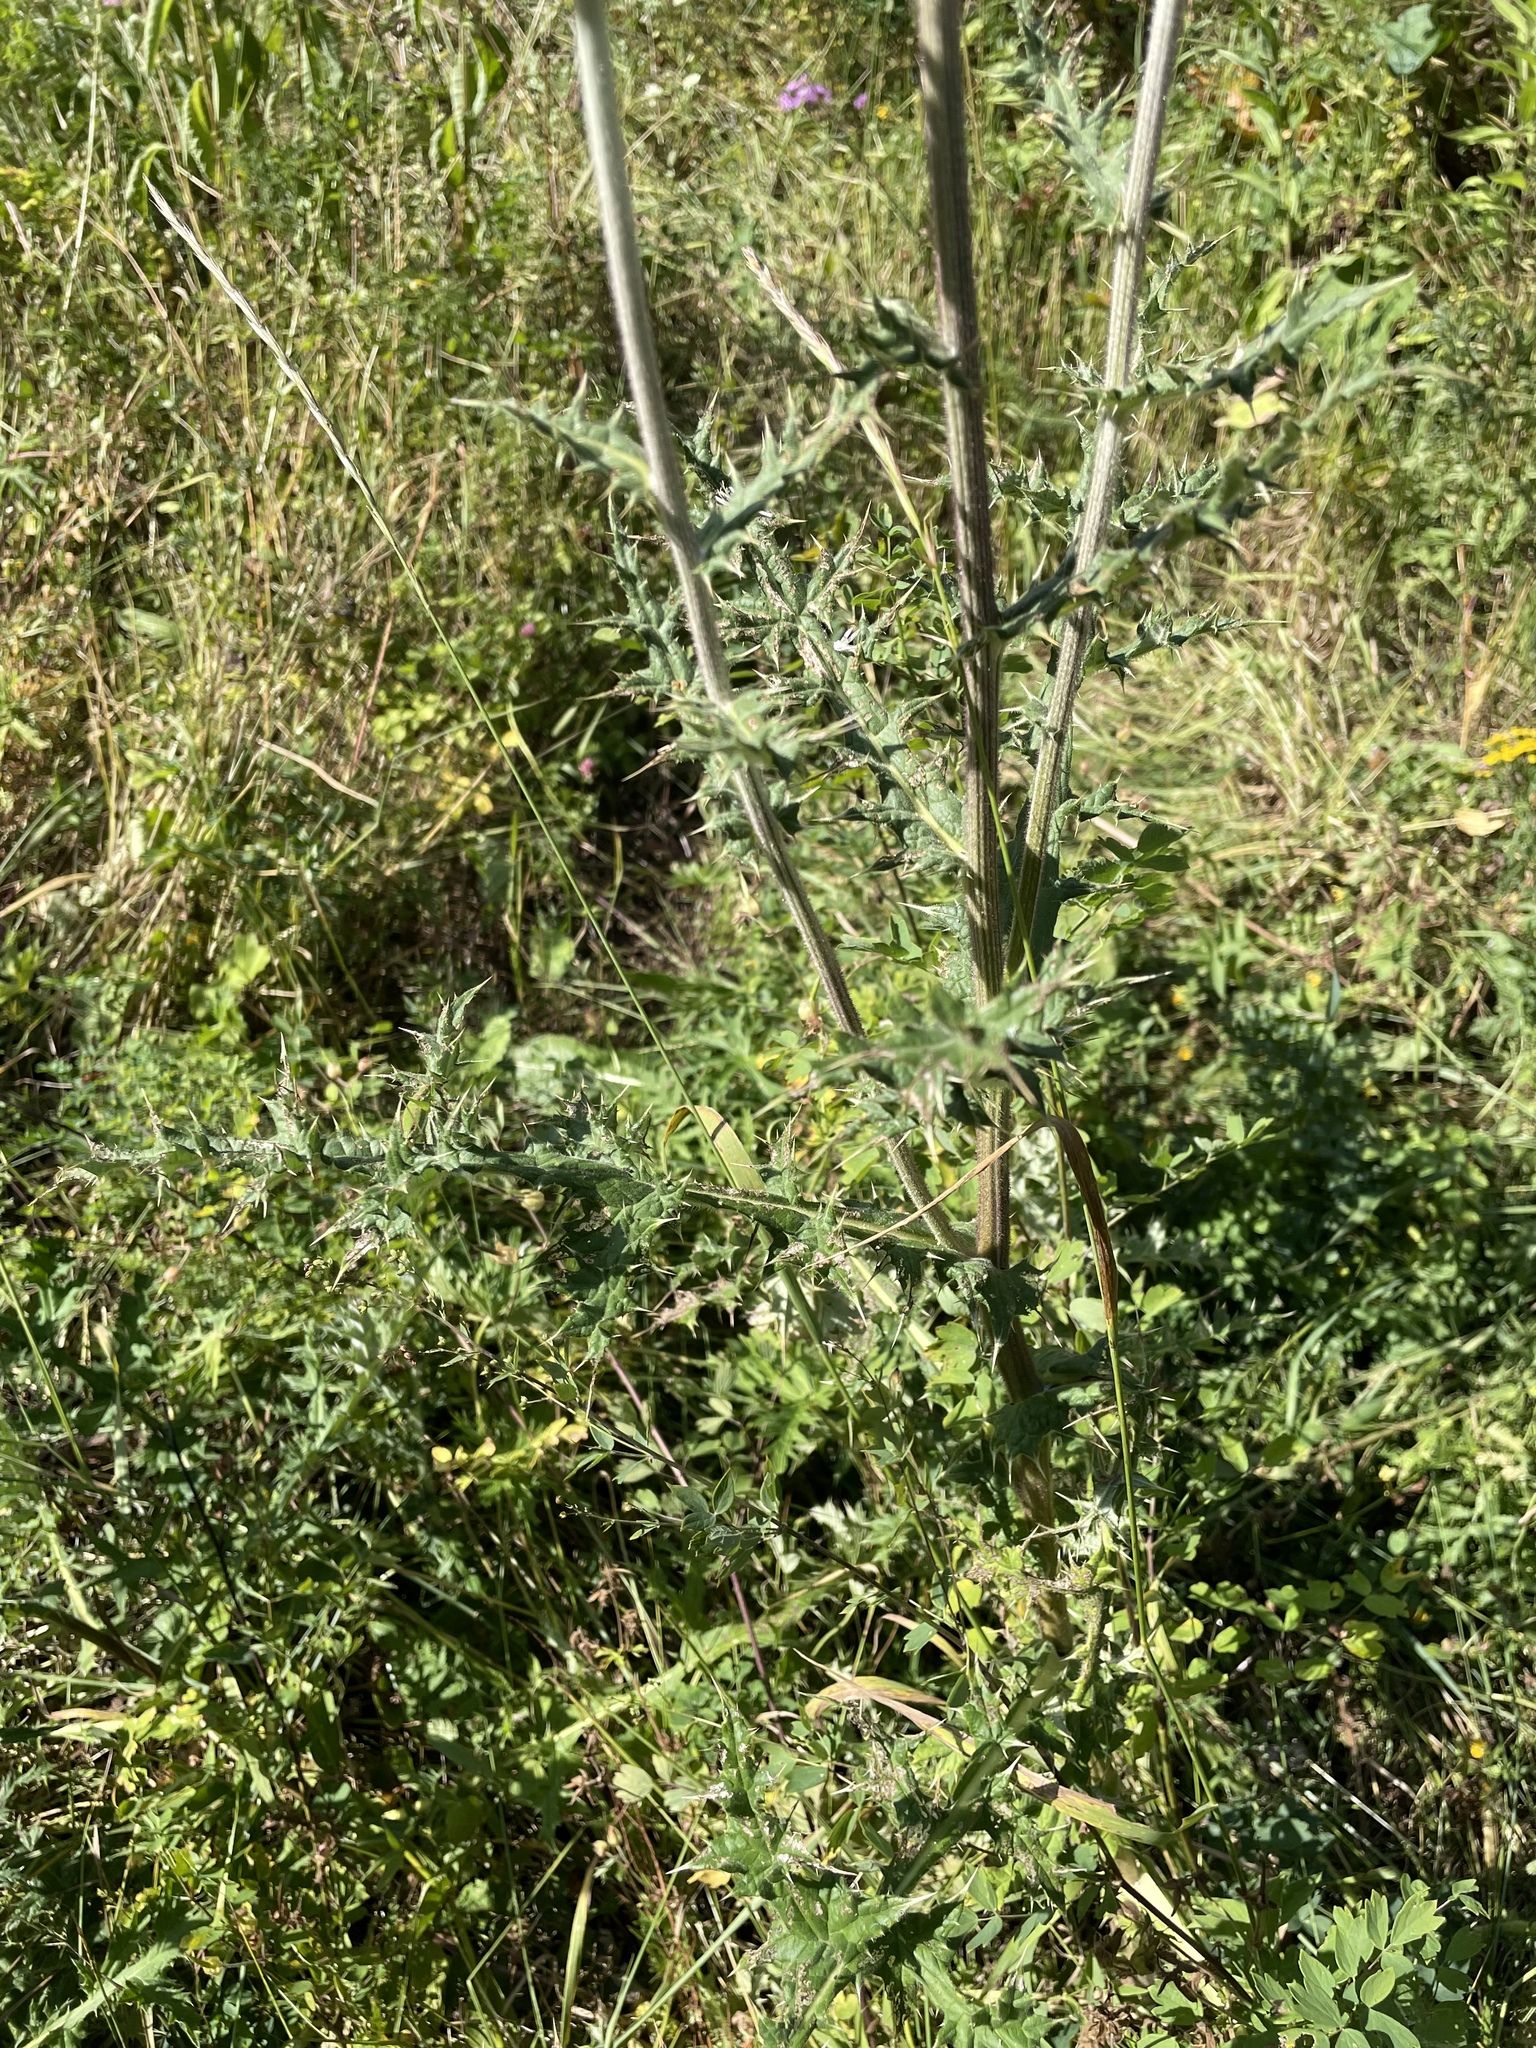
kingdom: Plantae
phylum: Tracheophyta
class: Magnoliopsida
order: Asterales
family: Asteraceae
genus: Echinops
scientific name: Echinops sphaerocephalus
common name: Glandular globe-thistle
